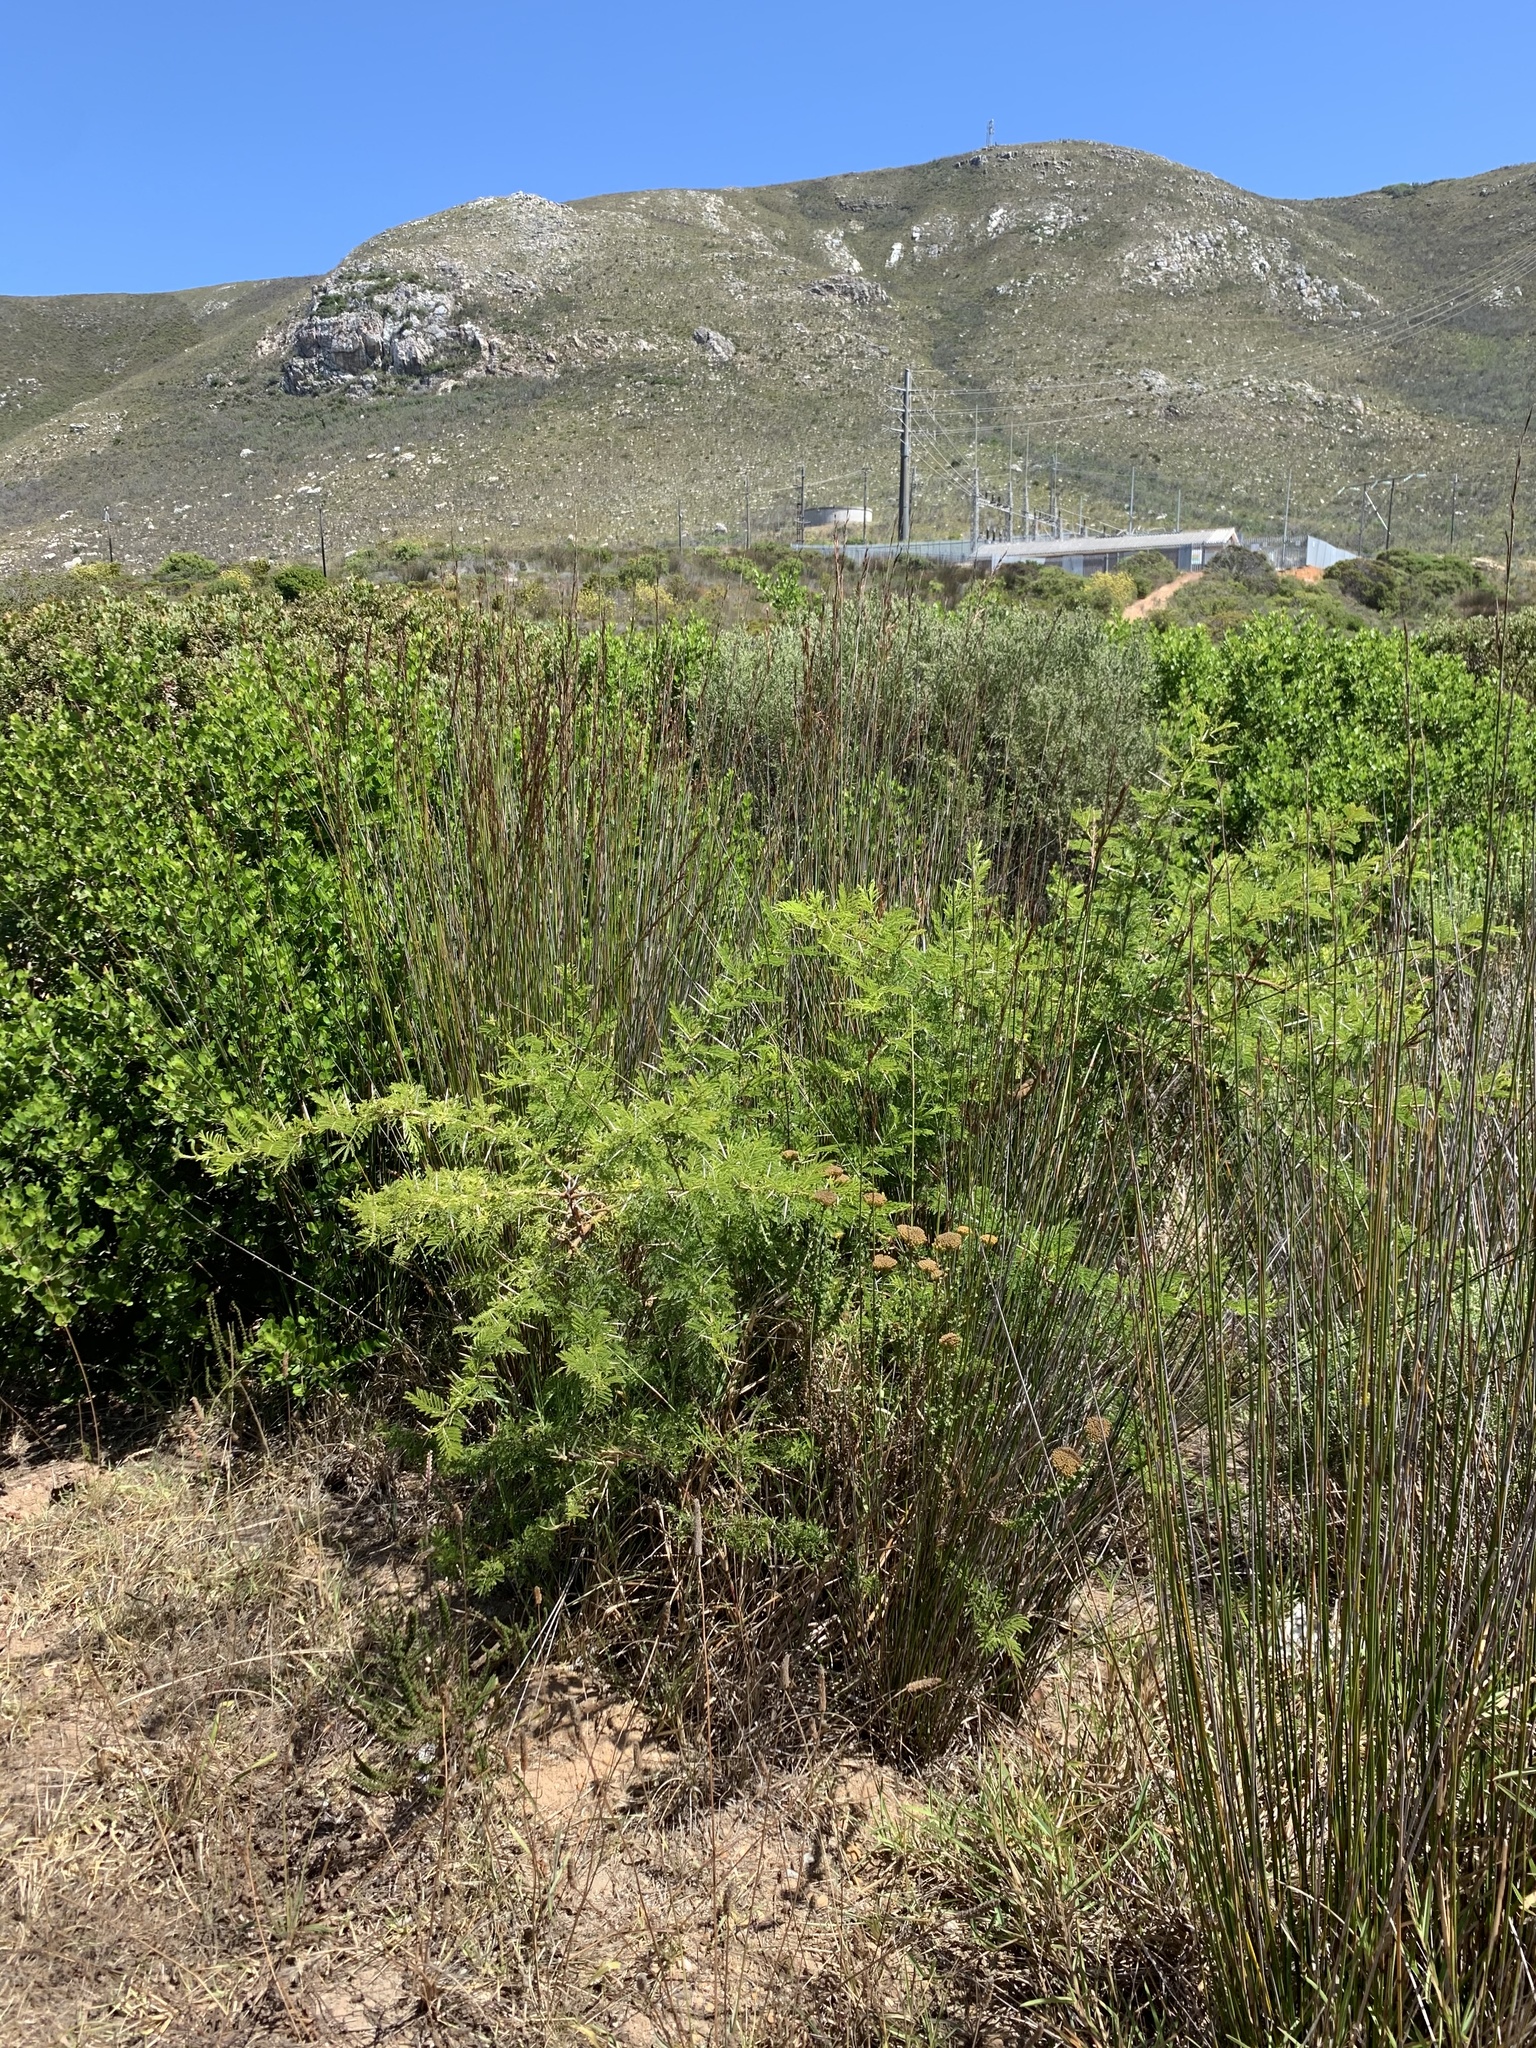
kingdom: Plantae
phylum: Tracheophyta
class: Magnoliopsida
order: Fabales
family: Fabaceae
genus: Vachellia
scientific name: Vachellia karroo
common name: Sweet thorn
